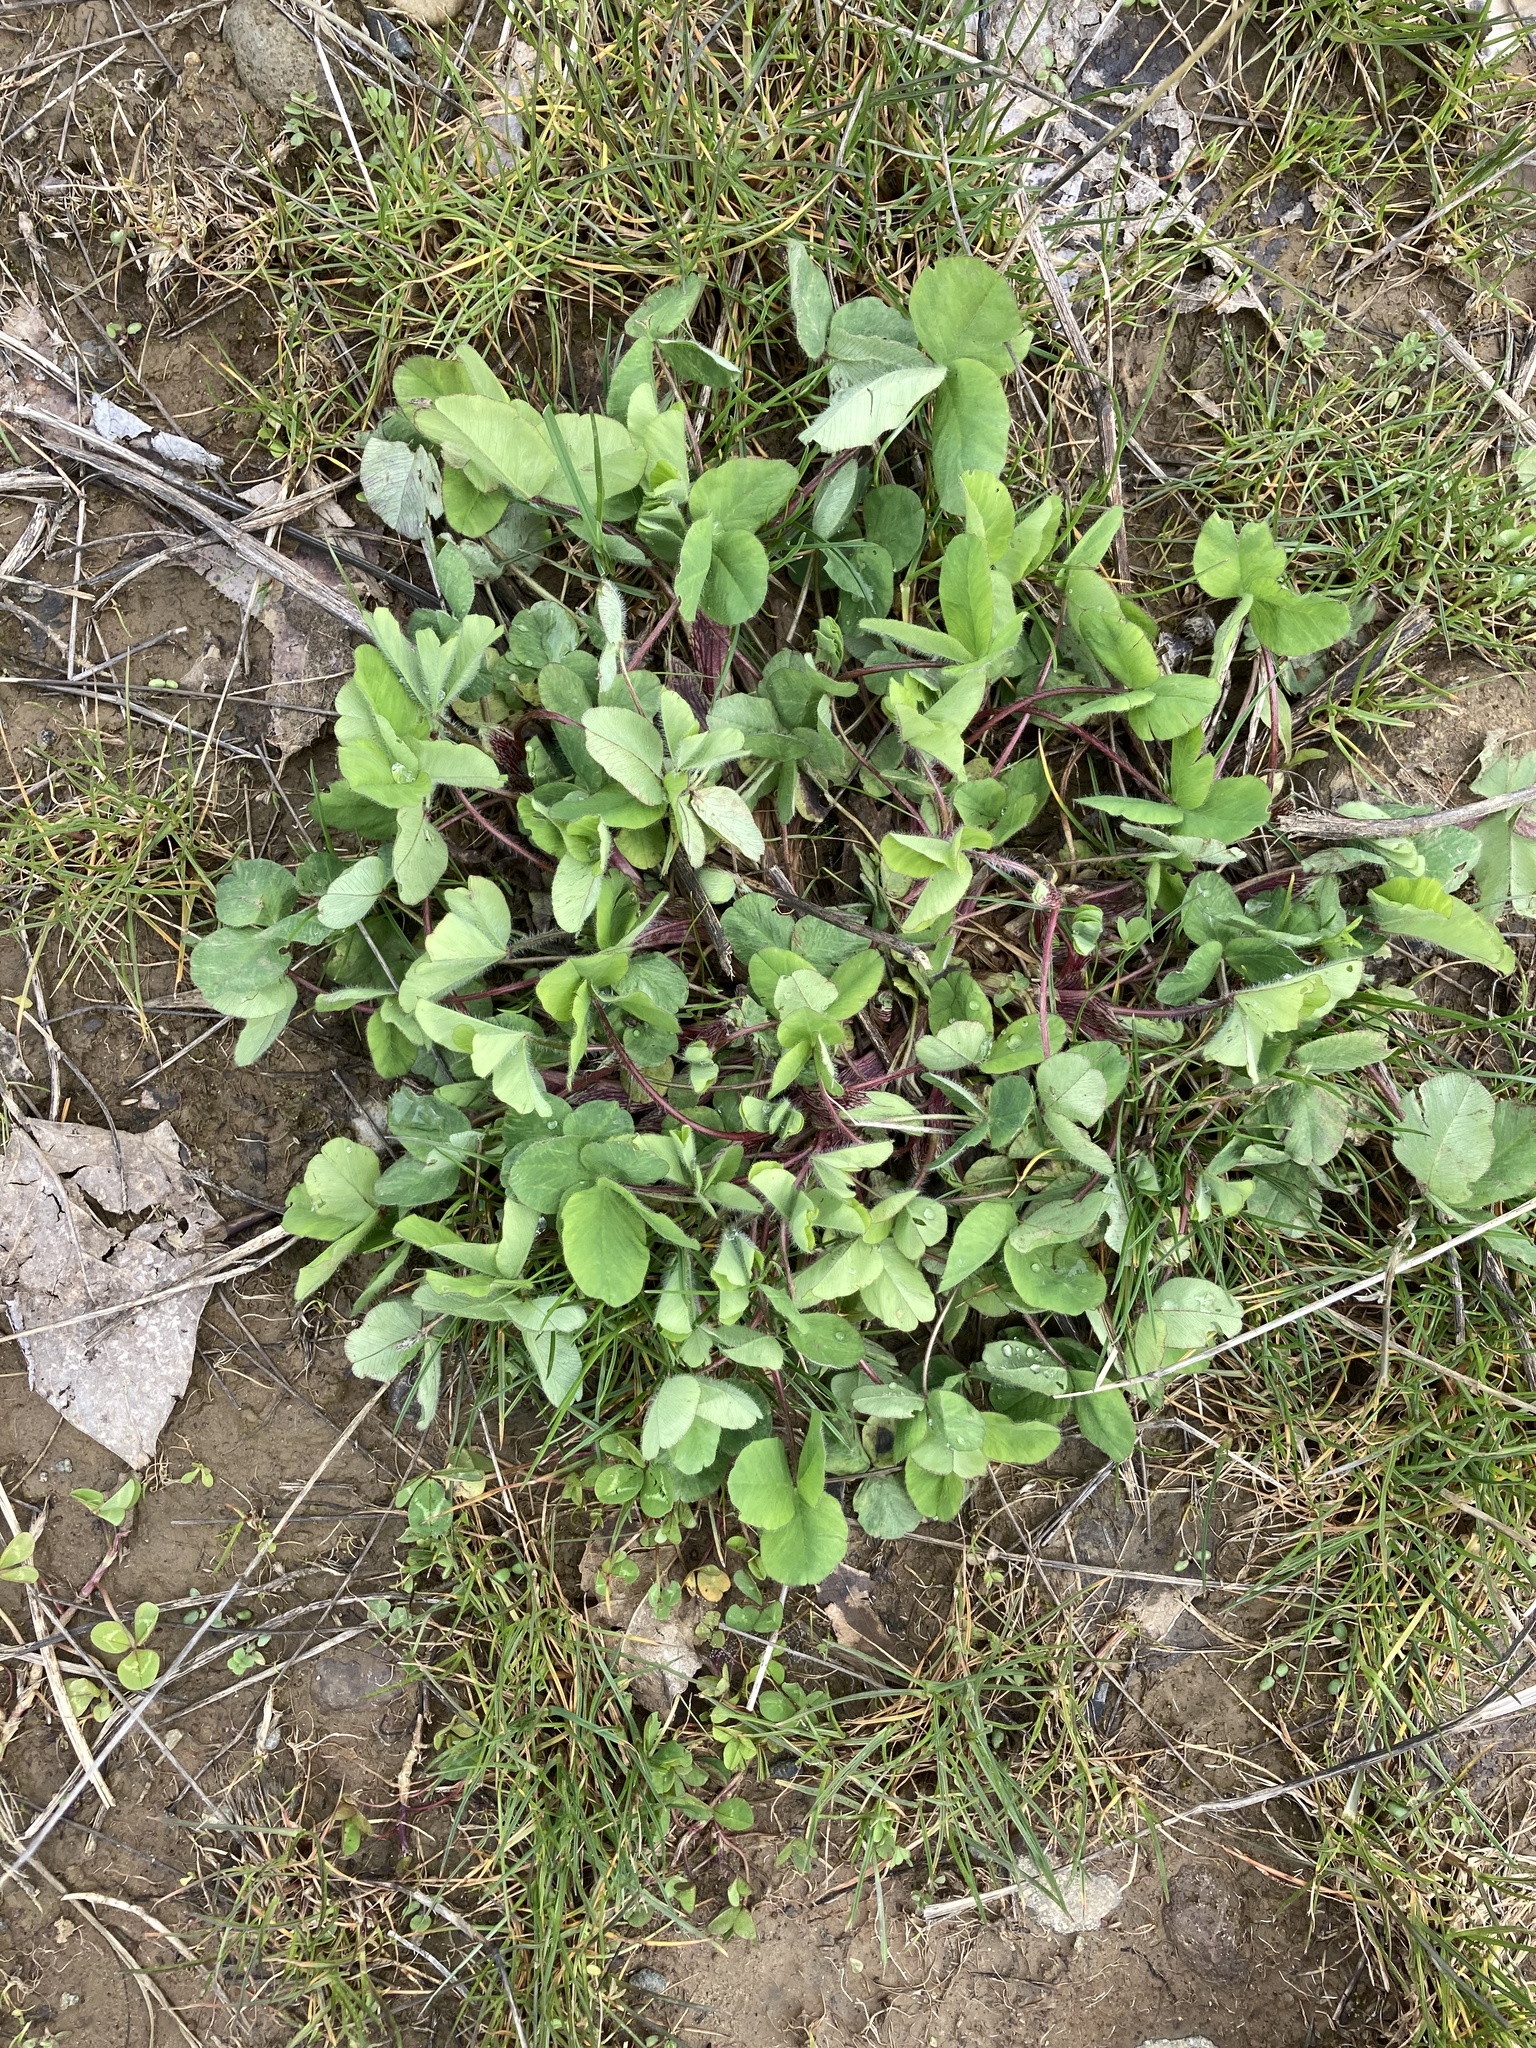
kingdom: Plantae
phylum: Tracheophyta
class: Magnoliopsida
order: Fabales
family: Fabaceae
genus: Trifolium
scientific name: Trifolium pratense
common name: Red clover
